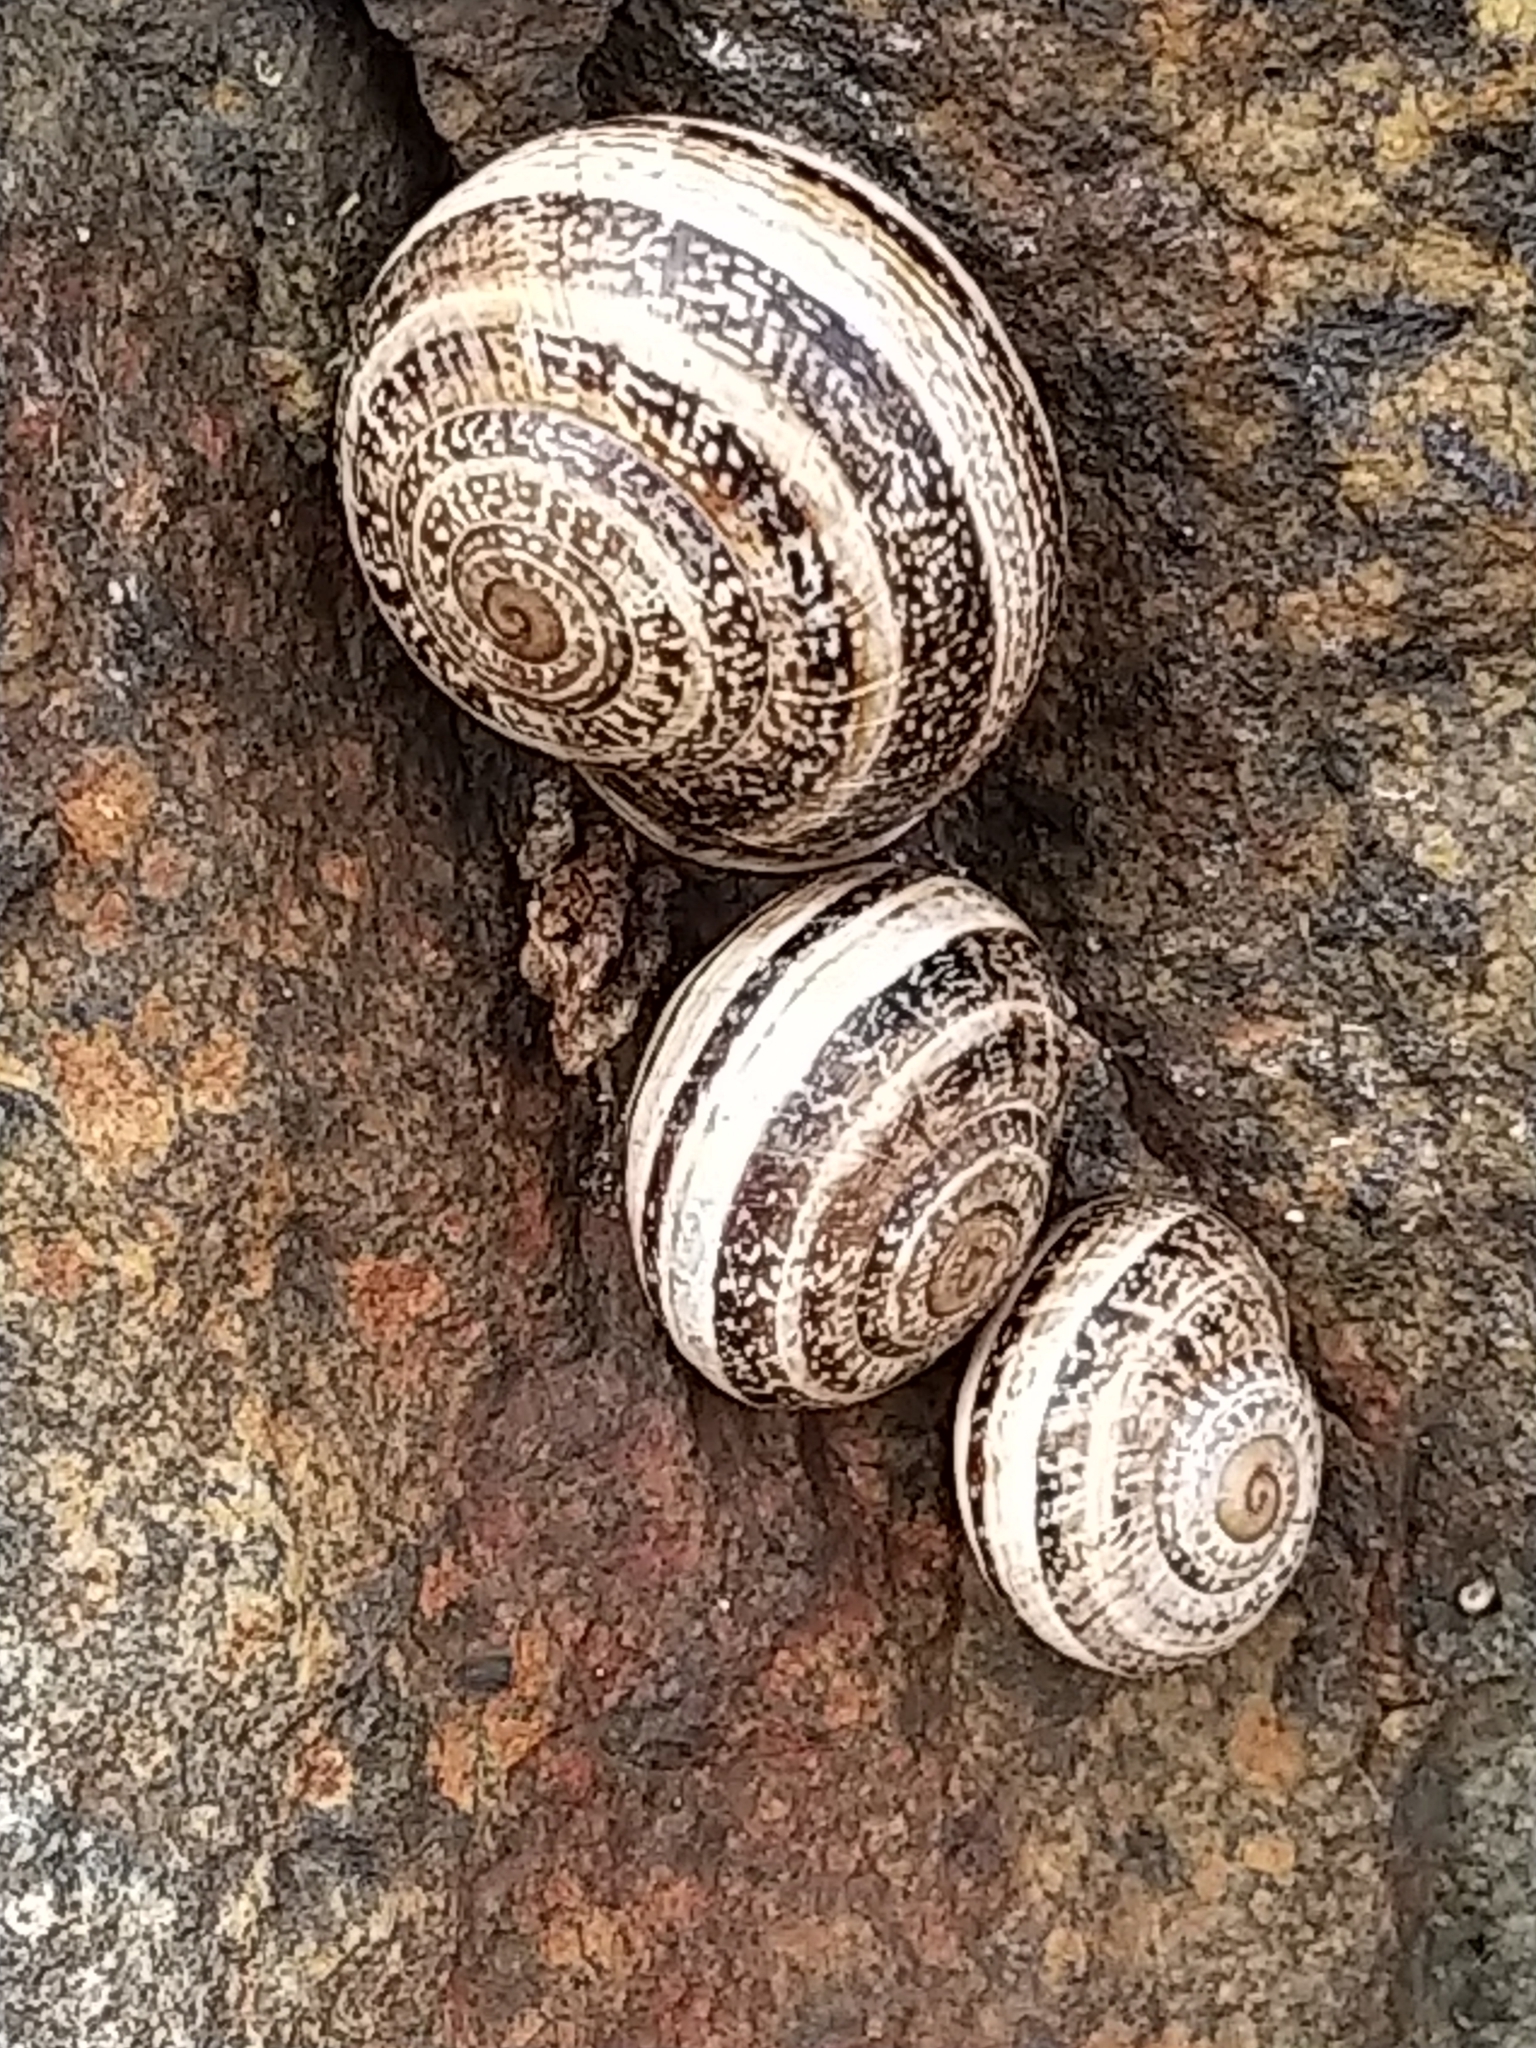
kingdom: Animalia
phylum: Mollusca
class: Gastropoda
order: Stylommatophora
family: Helicidae
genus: Otala
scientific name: Otala lactea
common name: Milk snail
